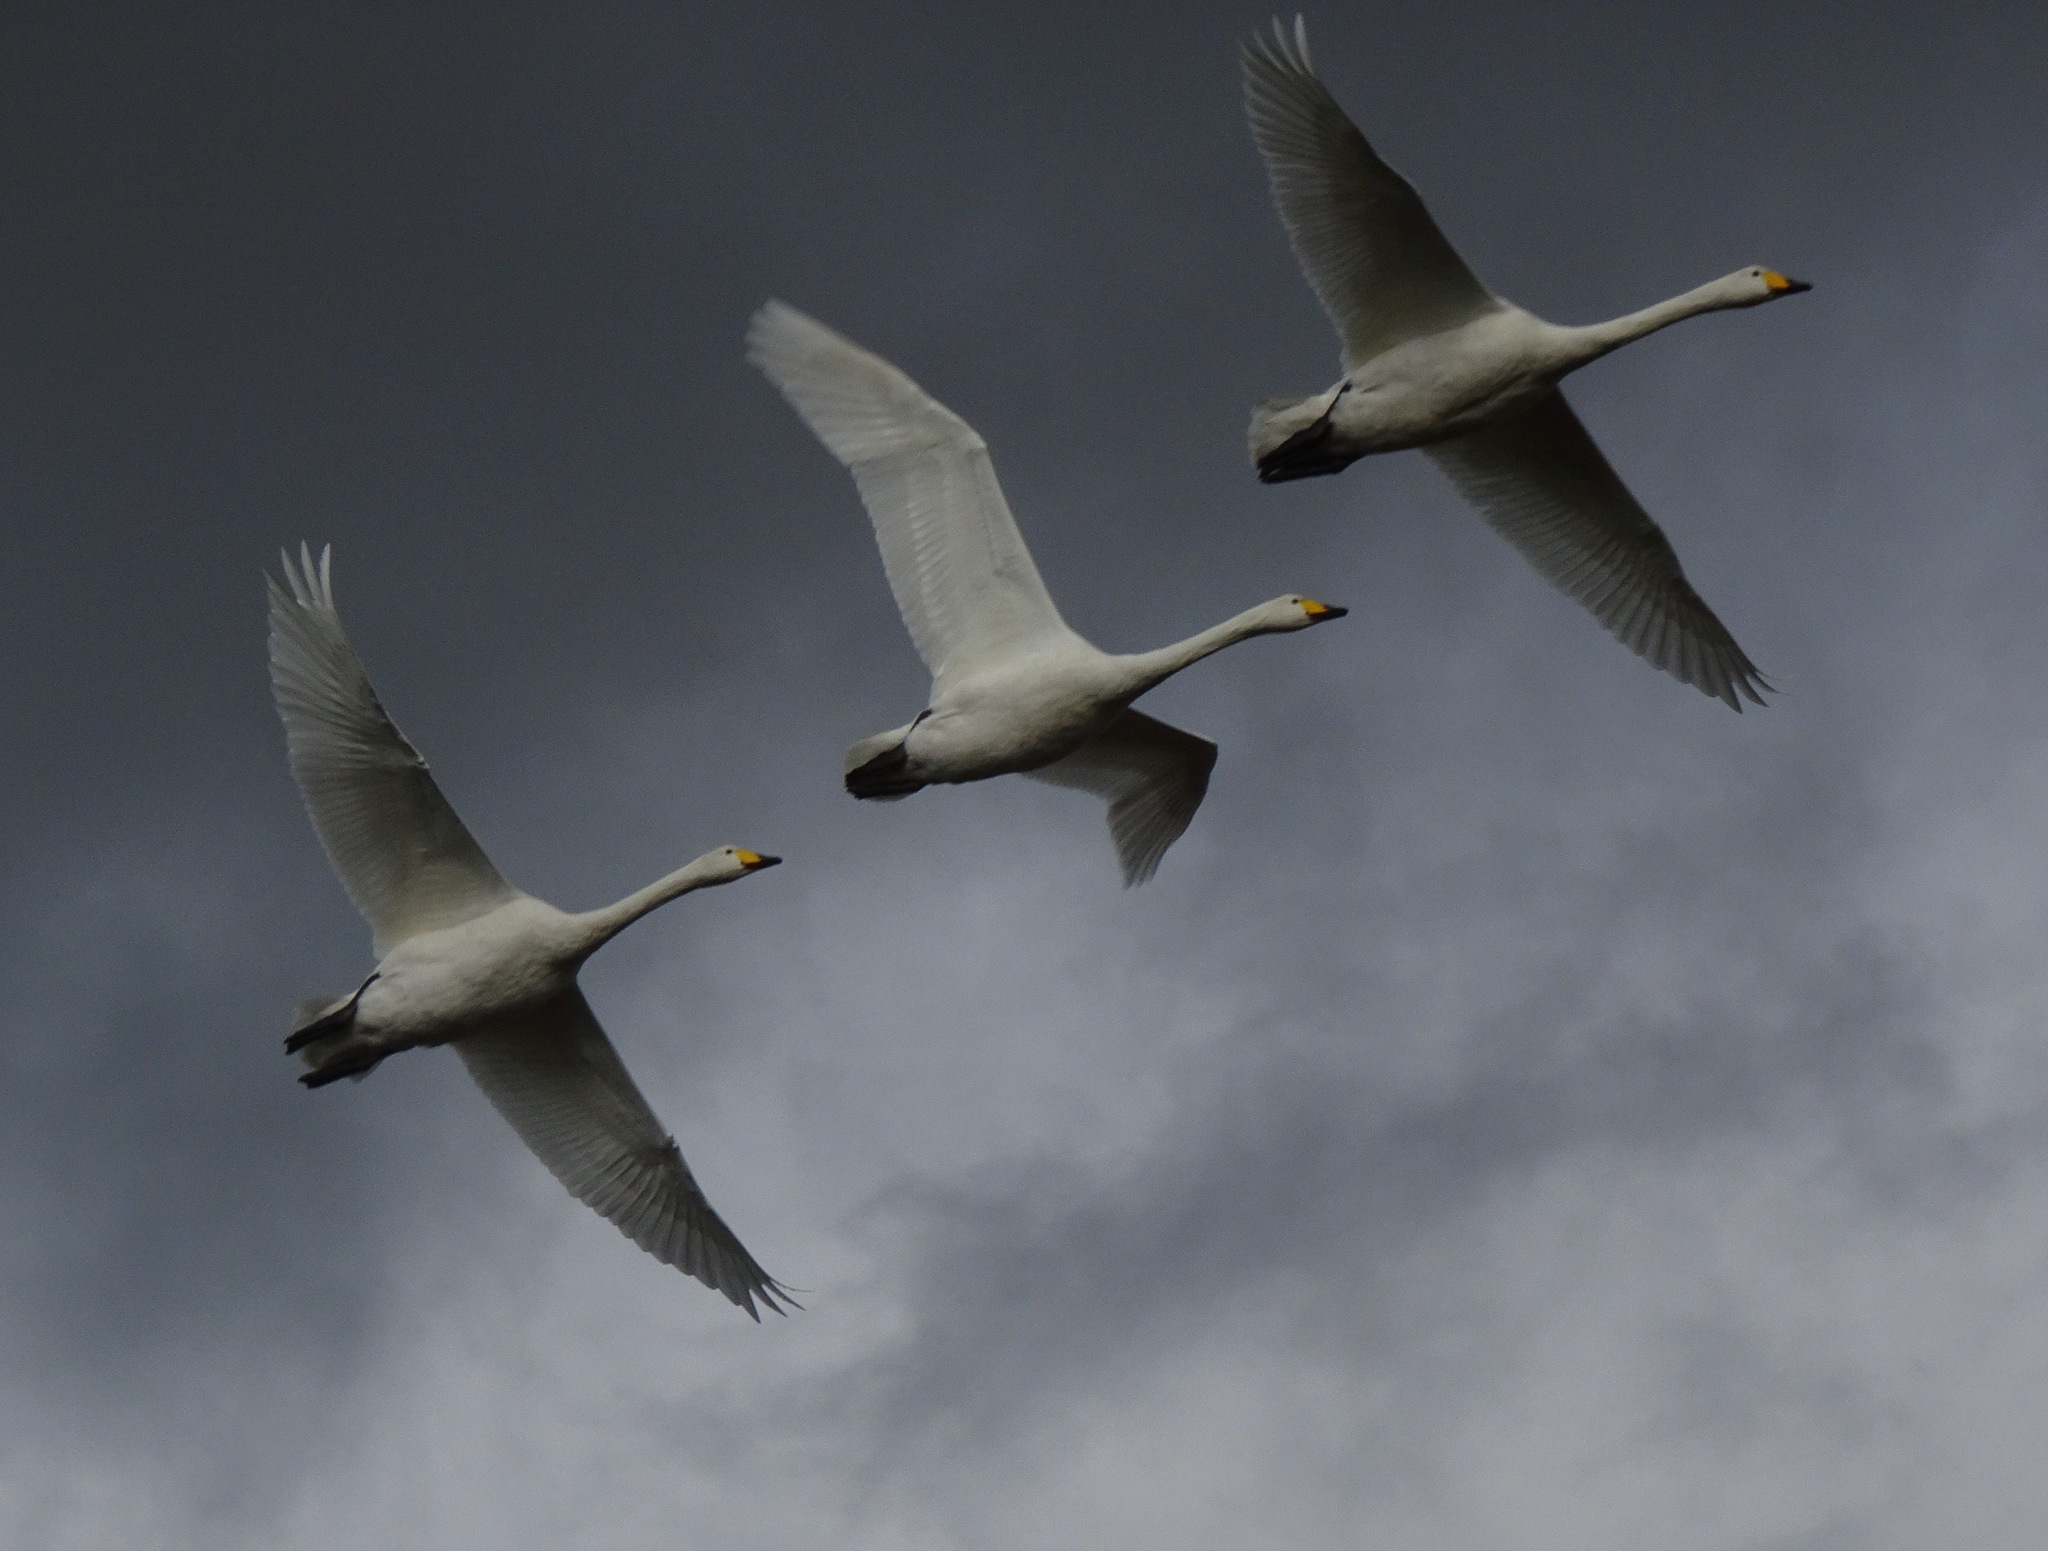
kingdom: Animalia
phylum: Chordata
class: Aves
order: Anseriformes
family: Anatidae
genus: Cygnus
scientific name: Cygnus cygnus
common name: Whooper swan
